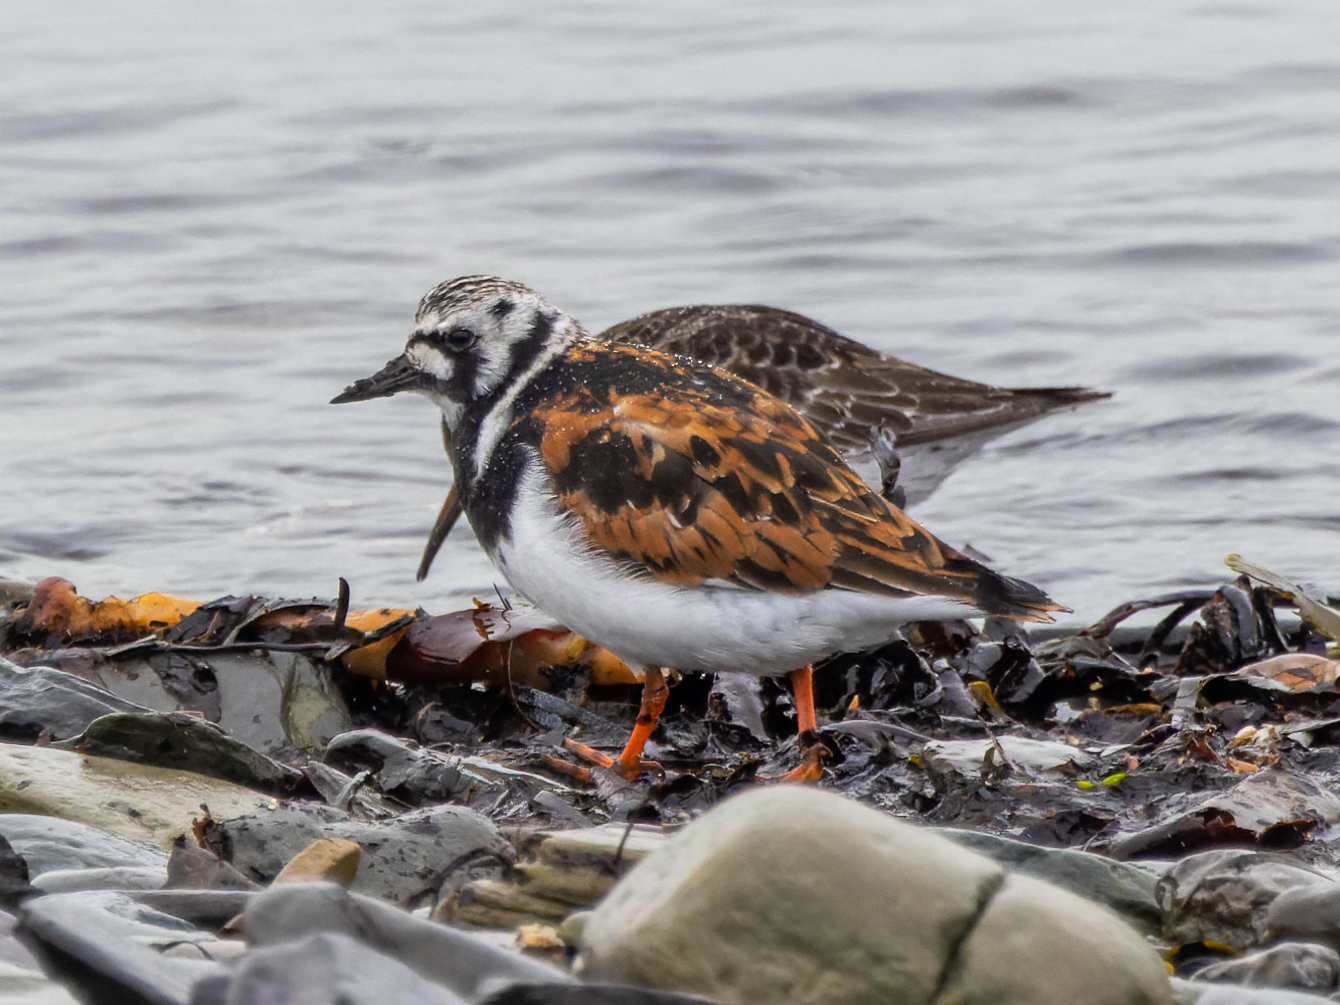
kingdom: Animalia
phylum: Chordata
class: Aves
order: Charadriiformes
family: Scolopacidae
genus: Arenaria
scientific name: Arenaria interpres
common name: Ruddy turnstone
